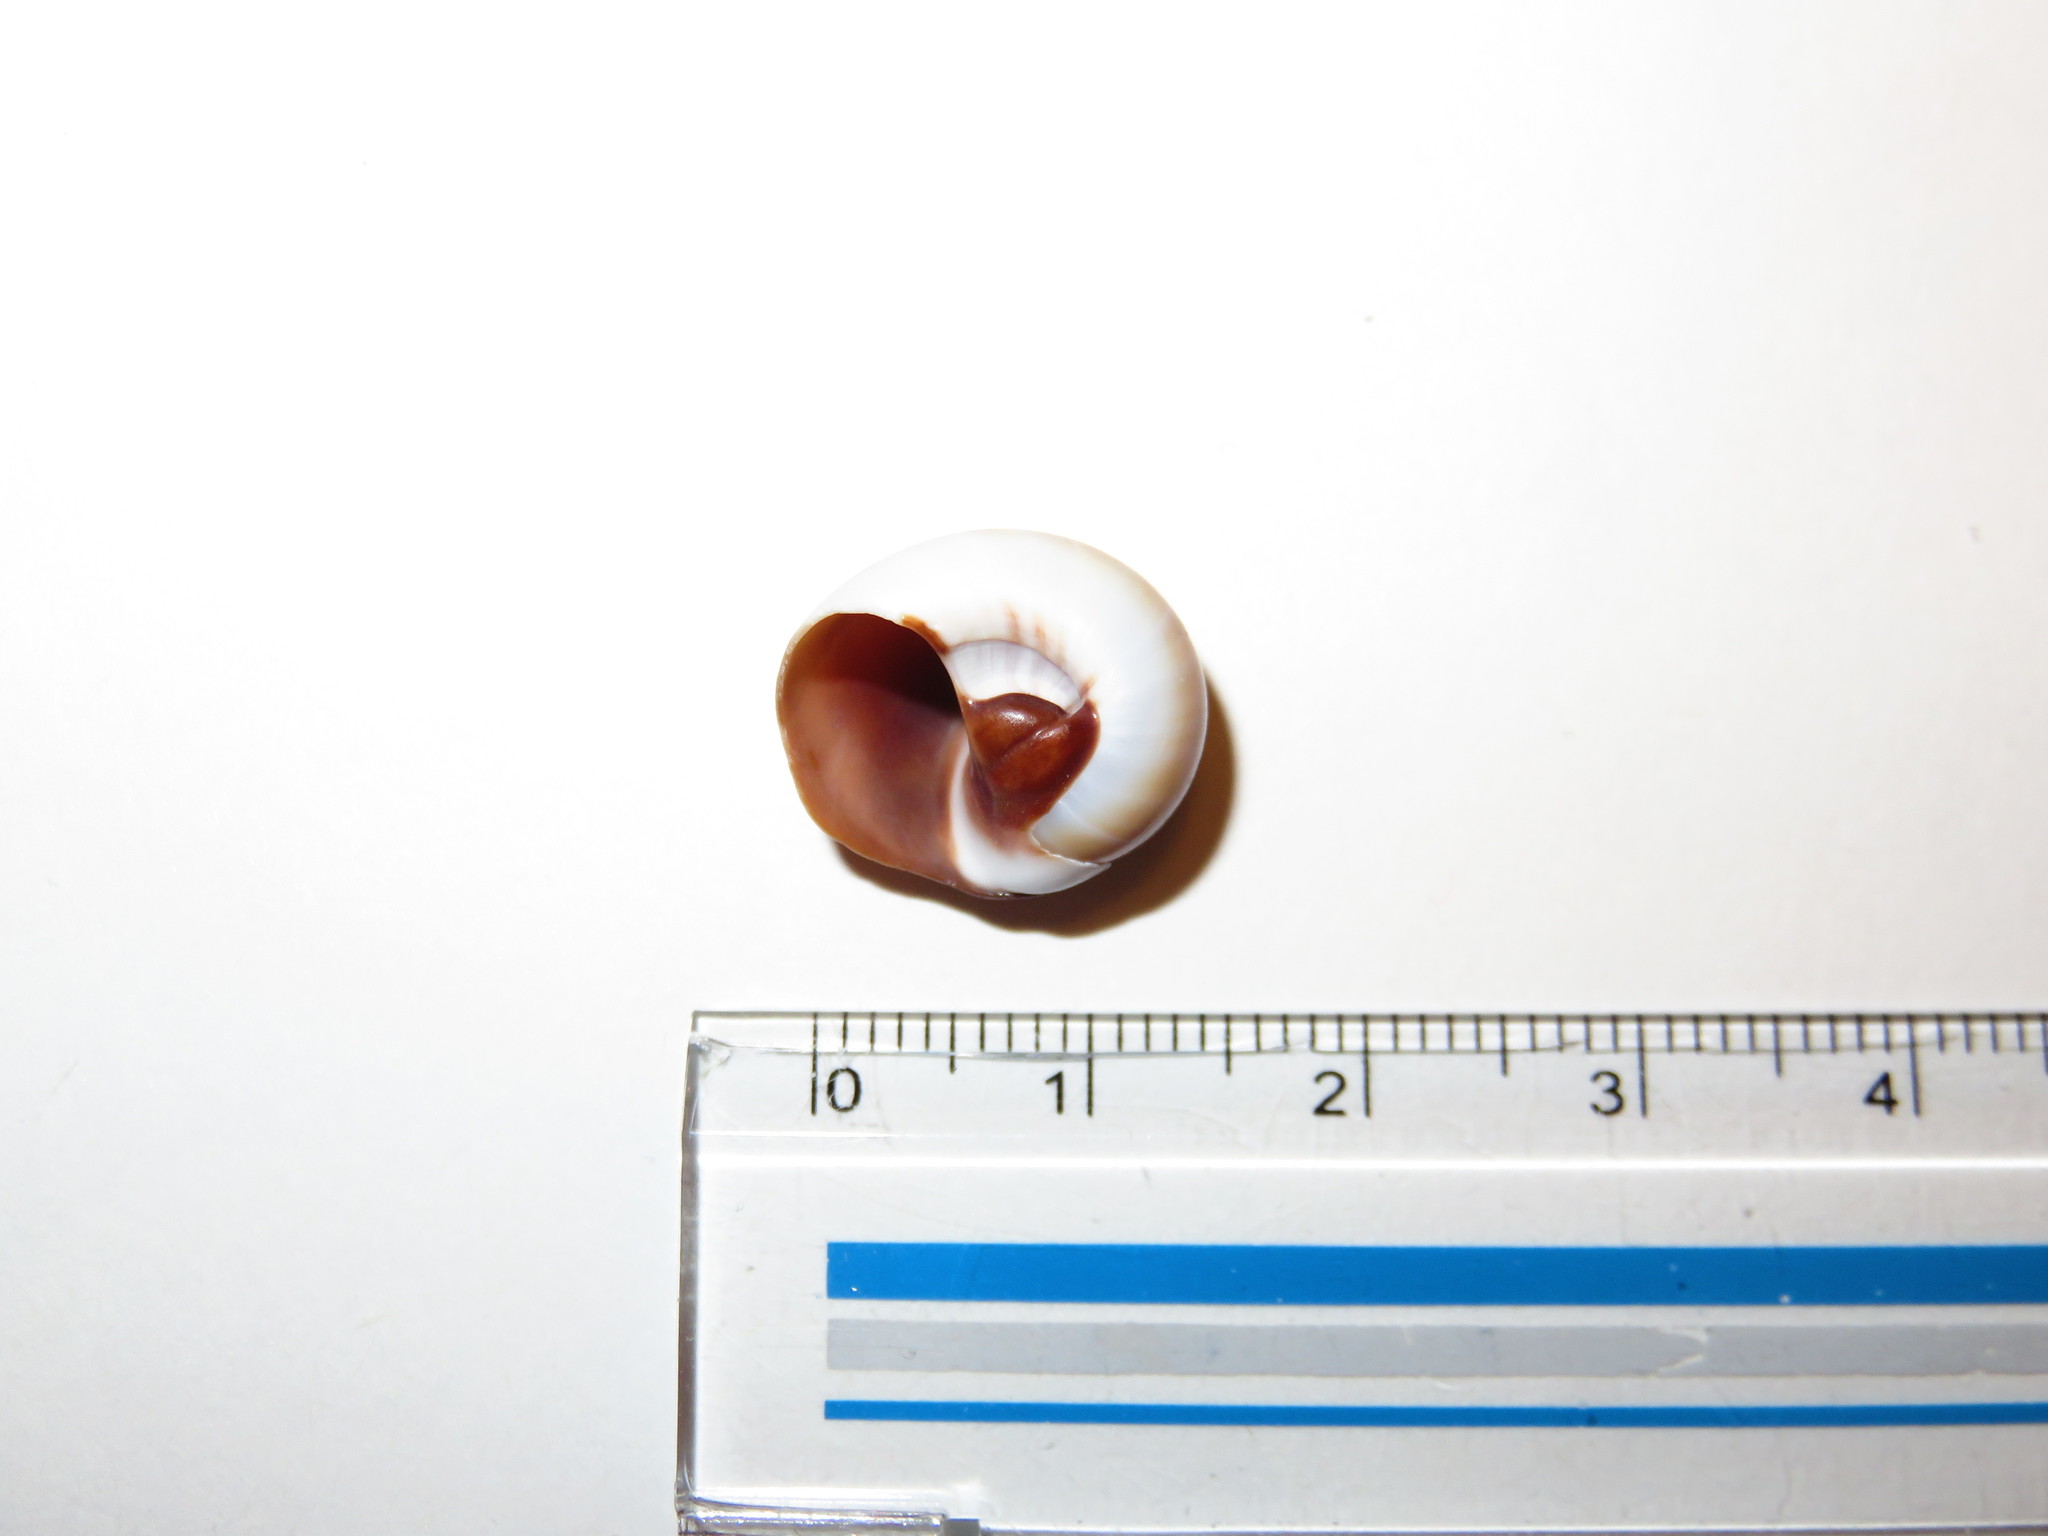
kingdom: Animalia
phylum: Mollusca
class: Gastropoda
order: Littorinimorpha
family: Naticidae
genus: Neverita
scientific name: Neverita didyma
